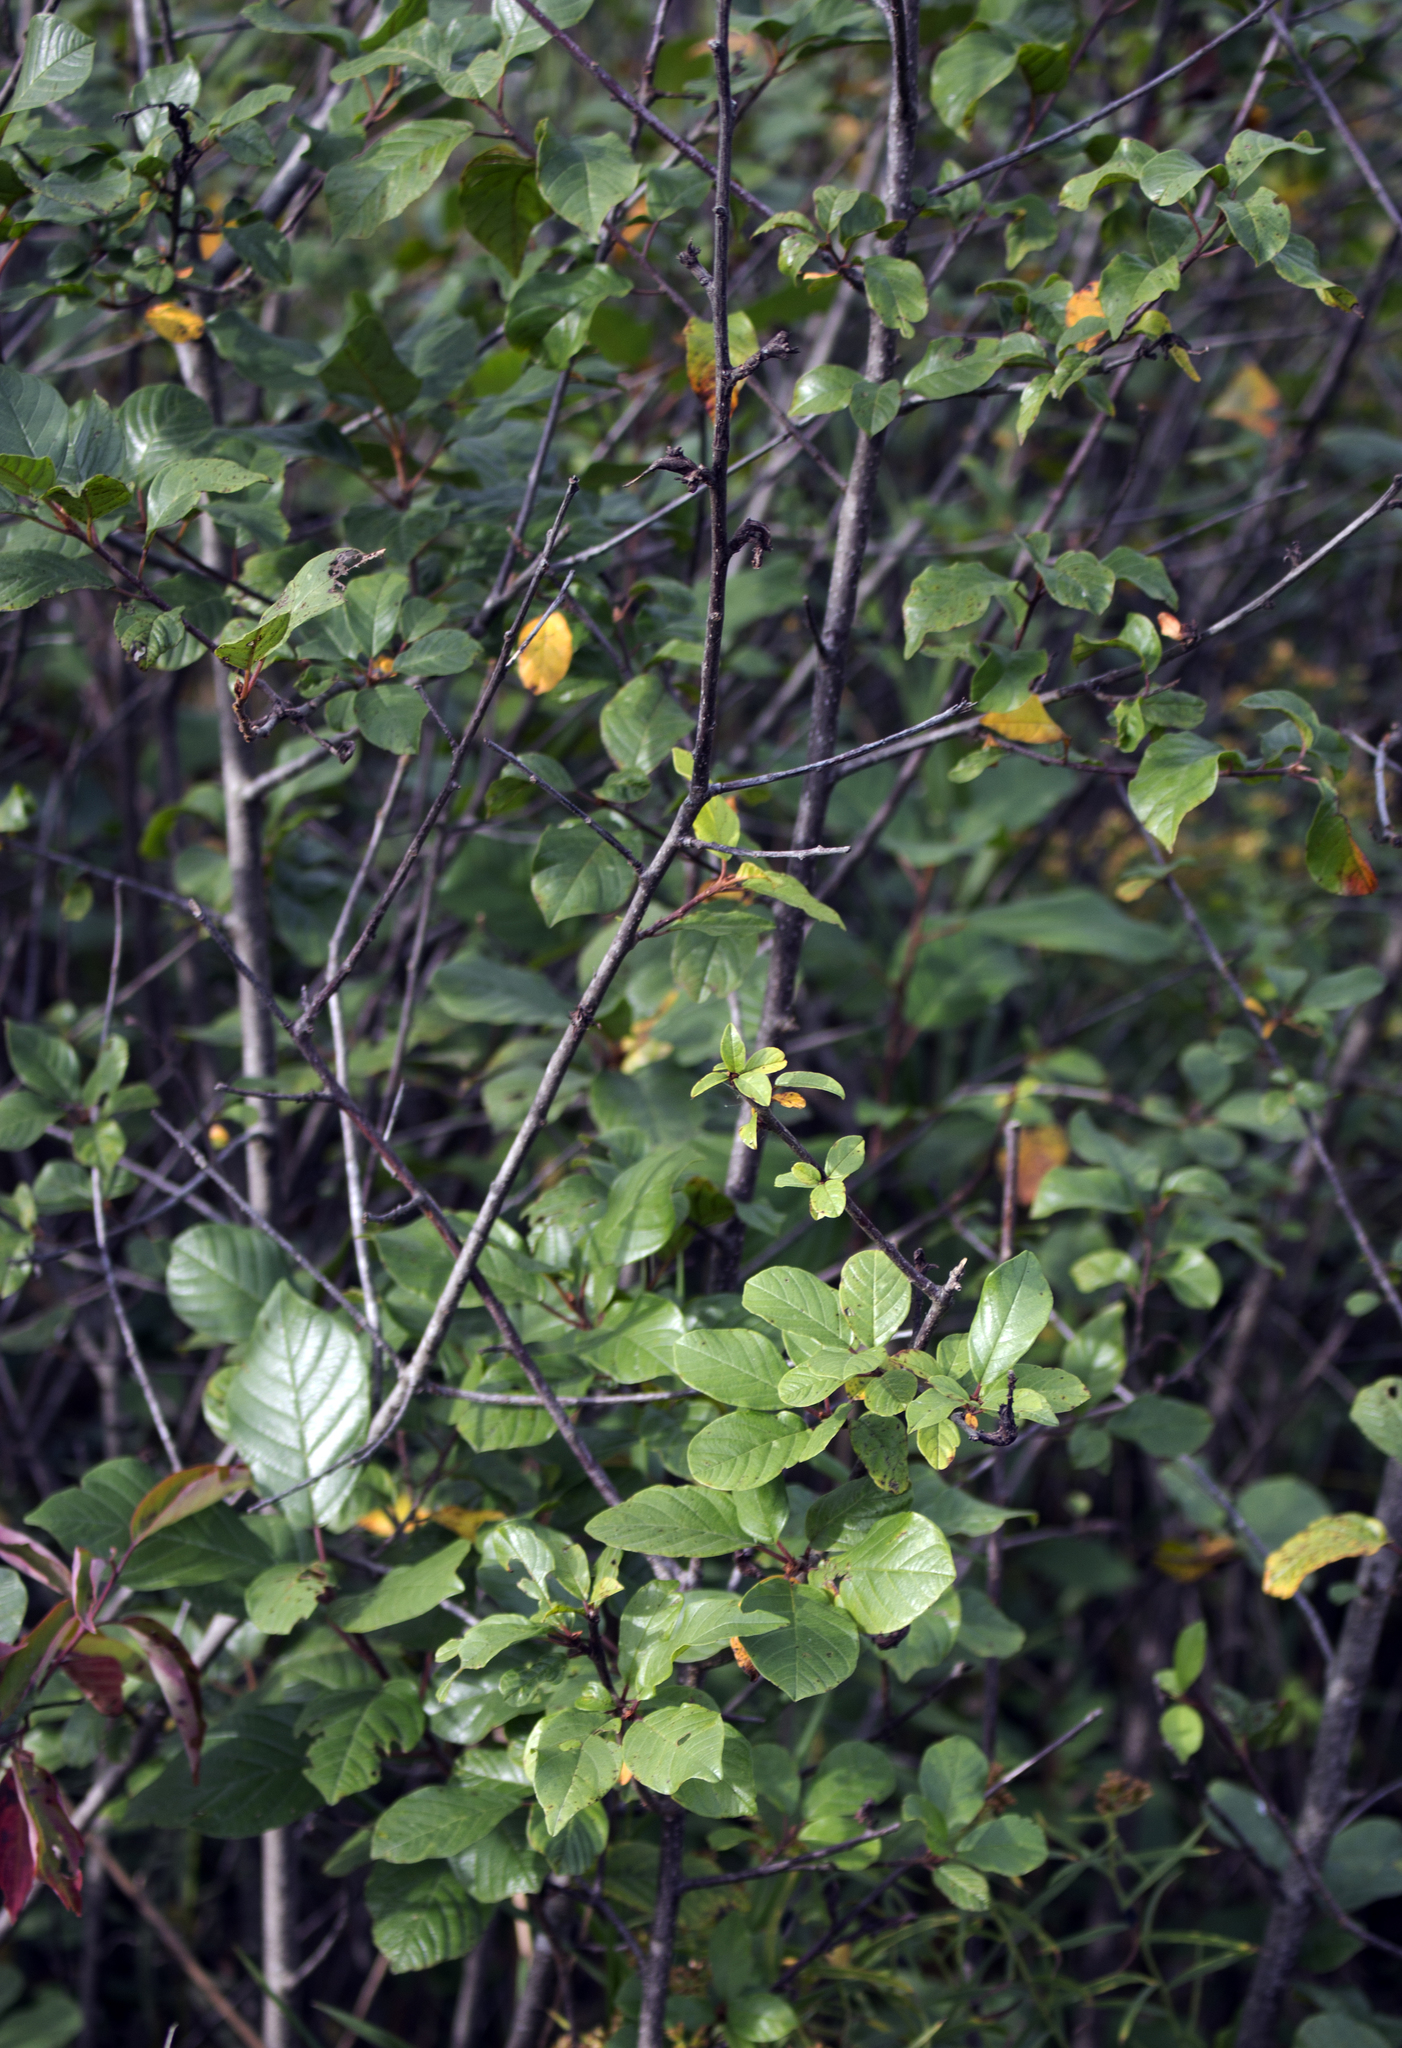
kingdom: Plantae
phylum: Tracheophyta
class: Magnoliopsida
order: Rosales
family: Rhamnaceae
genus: Frangula
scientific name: Frangula alnus
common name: Alder buckthorn
